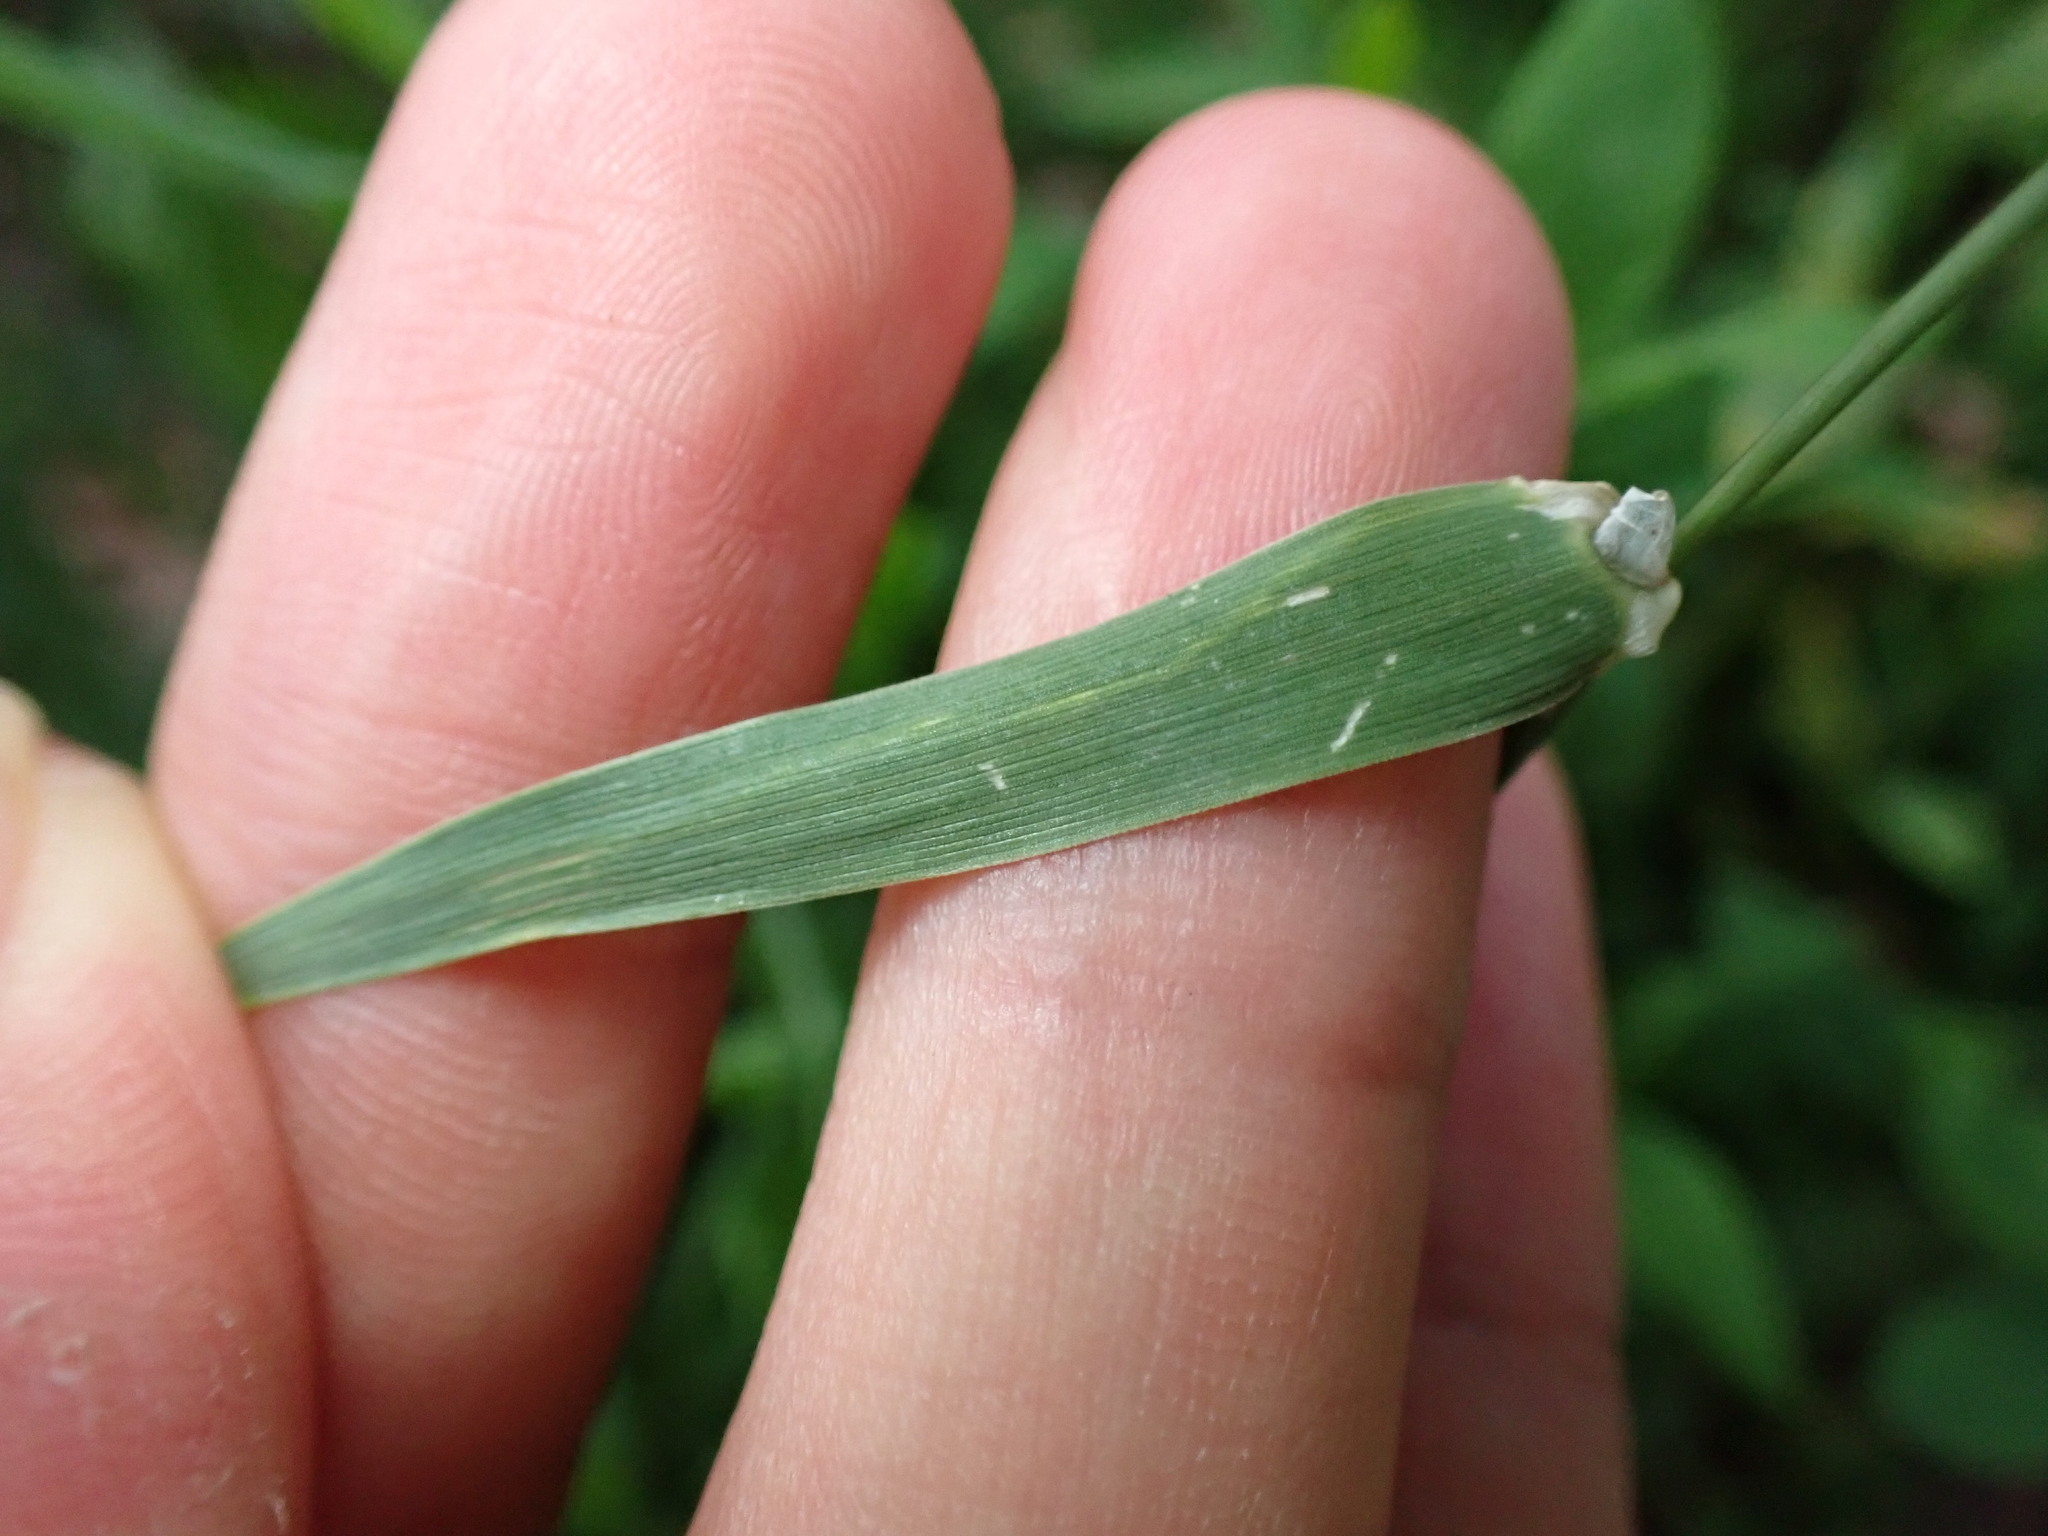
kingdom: Animalia
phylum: Arthropoda
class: Insecta
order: Diptera
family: Agromyzidae
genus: Cerodontha
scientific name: Cerodontha dorsalis
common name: Grass sheathminer fly
